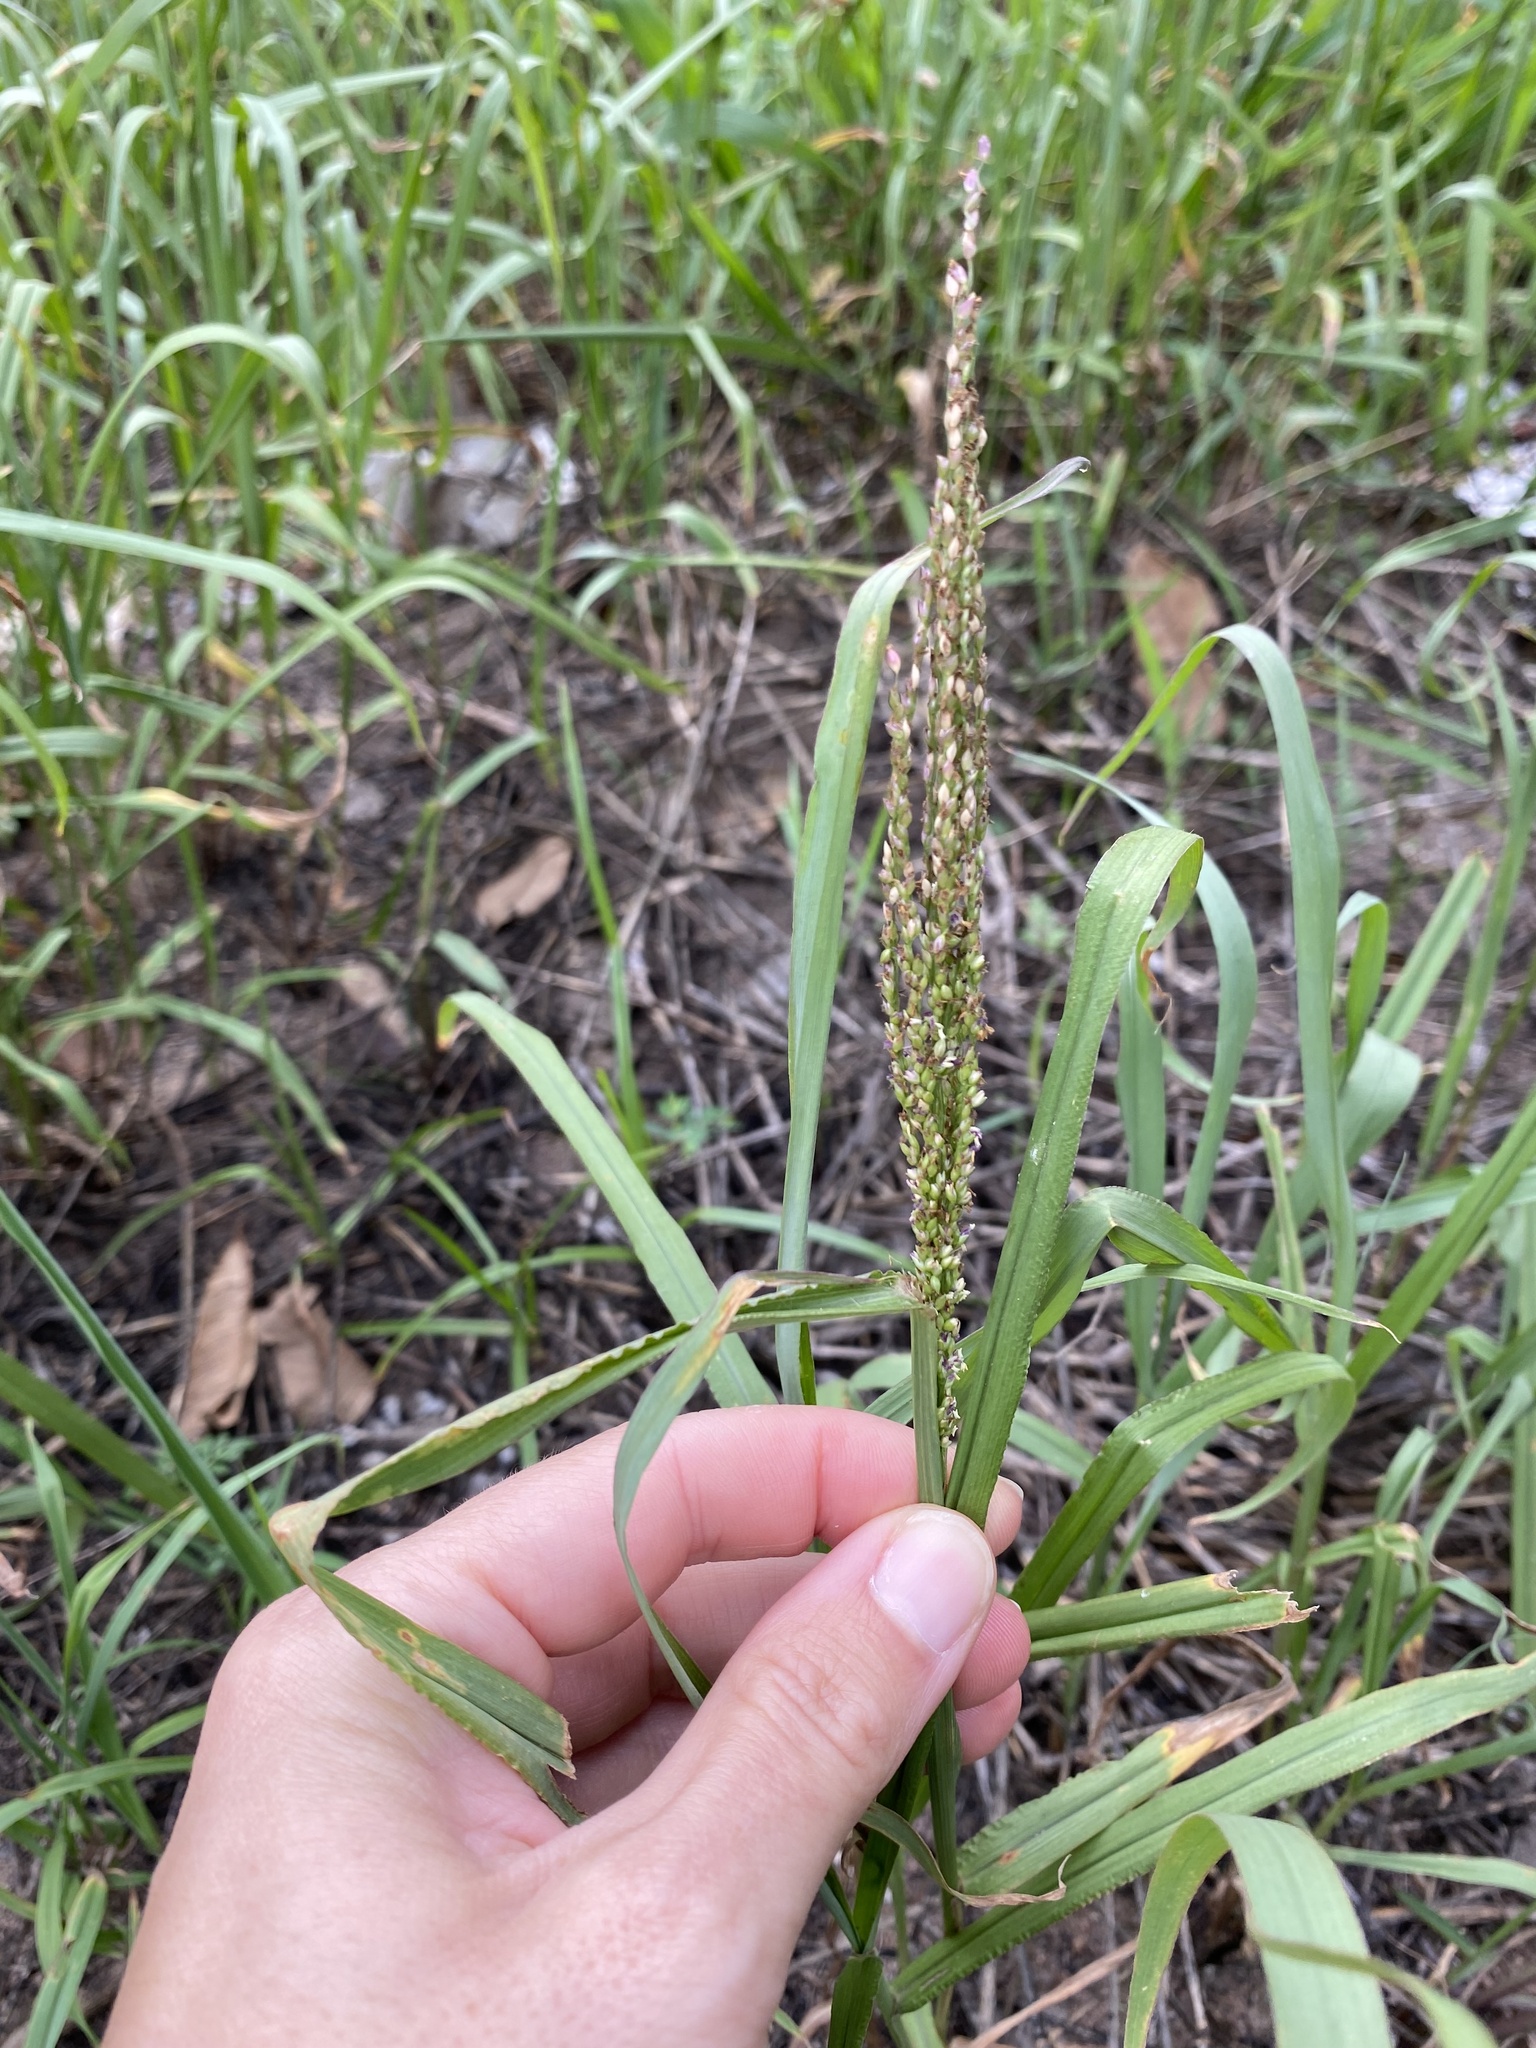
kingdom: Plantae
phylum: Tracheophyta
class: Liliopsida
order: Poales
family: Poaceae
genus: Megathyrsus
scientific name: Megathyrsus maximus
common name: Guineagrass
